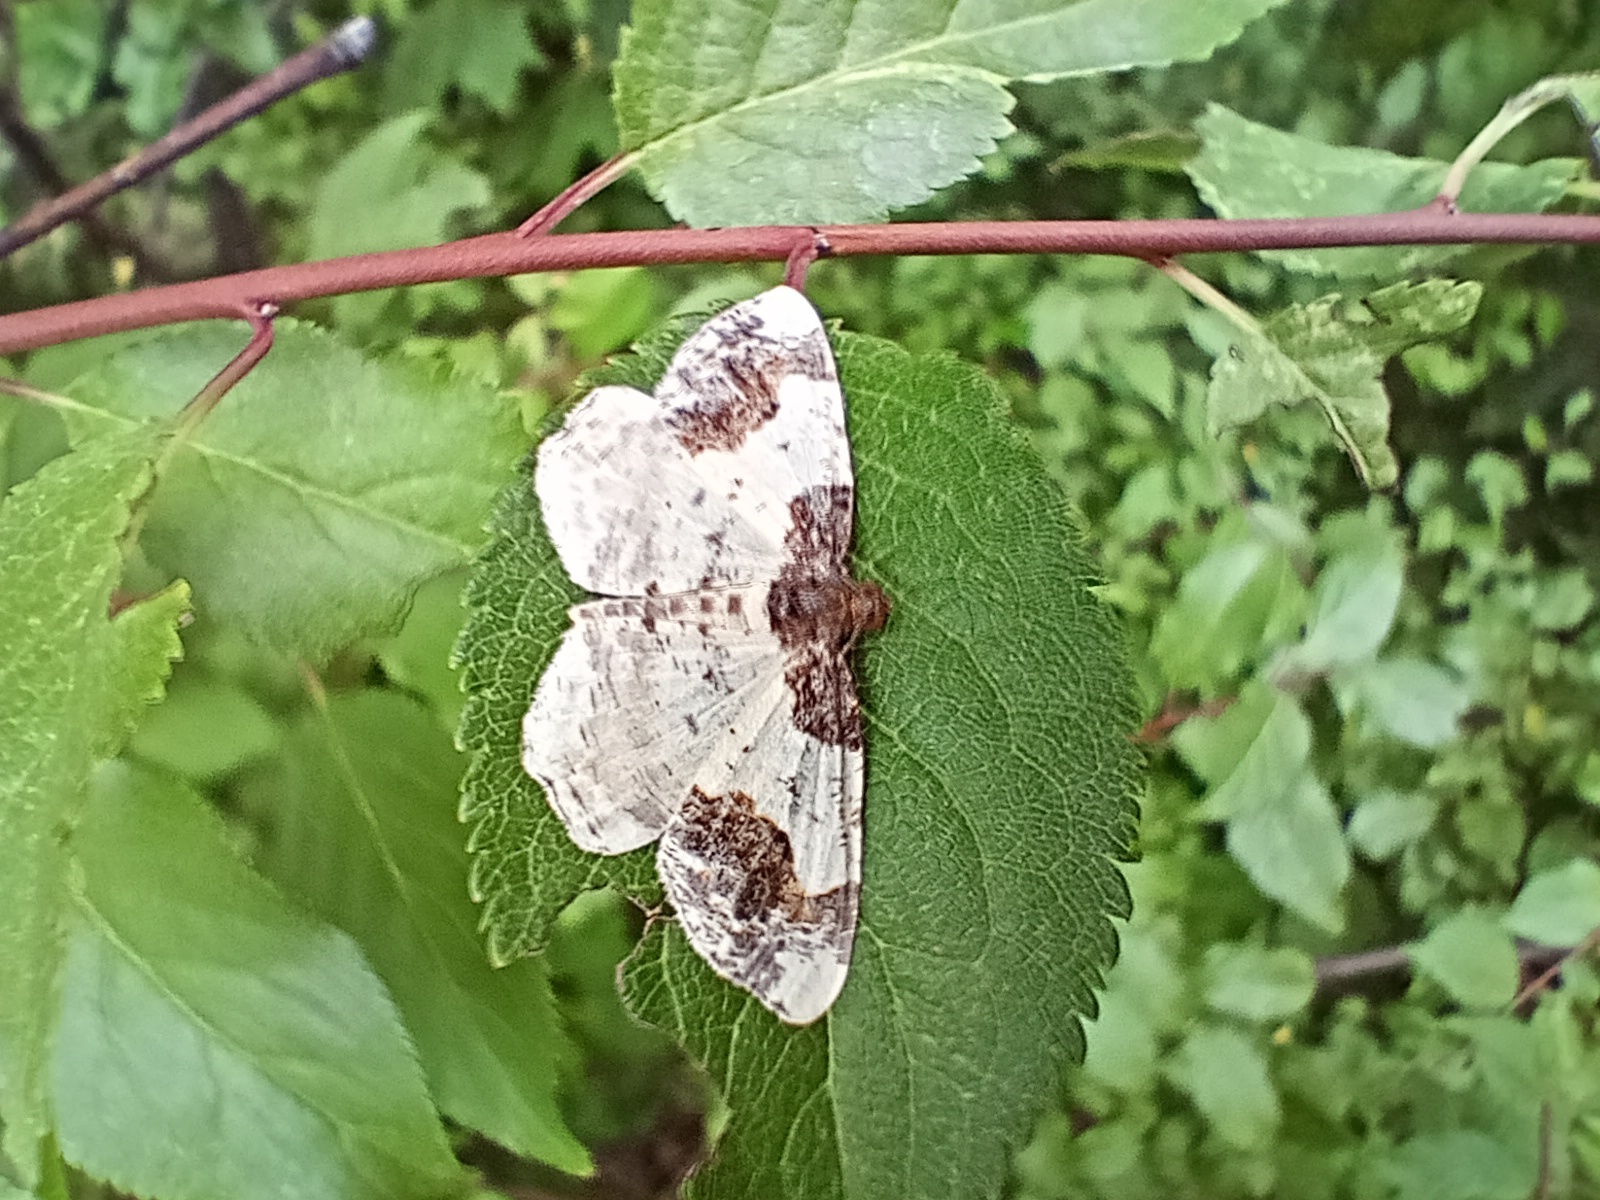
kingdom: Animalia
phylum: Arthropoda
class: Insecta
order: Lepidoptera
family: Geometridae
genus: Ligdia
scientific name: Ligdia adustata
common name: Scorched carpet
